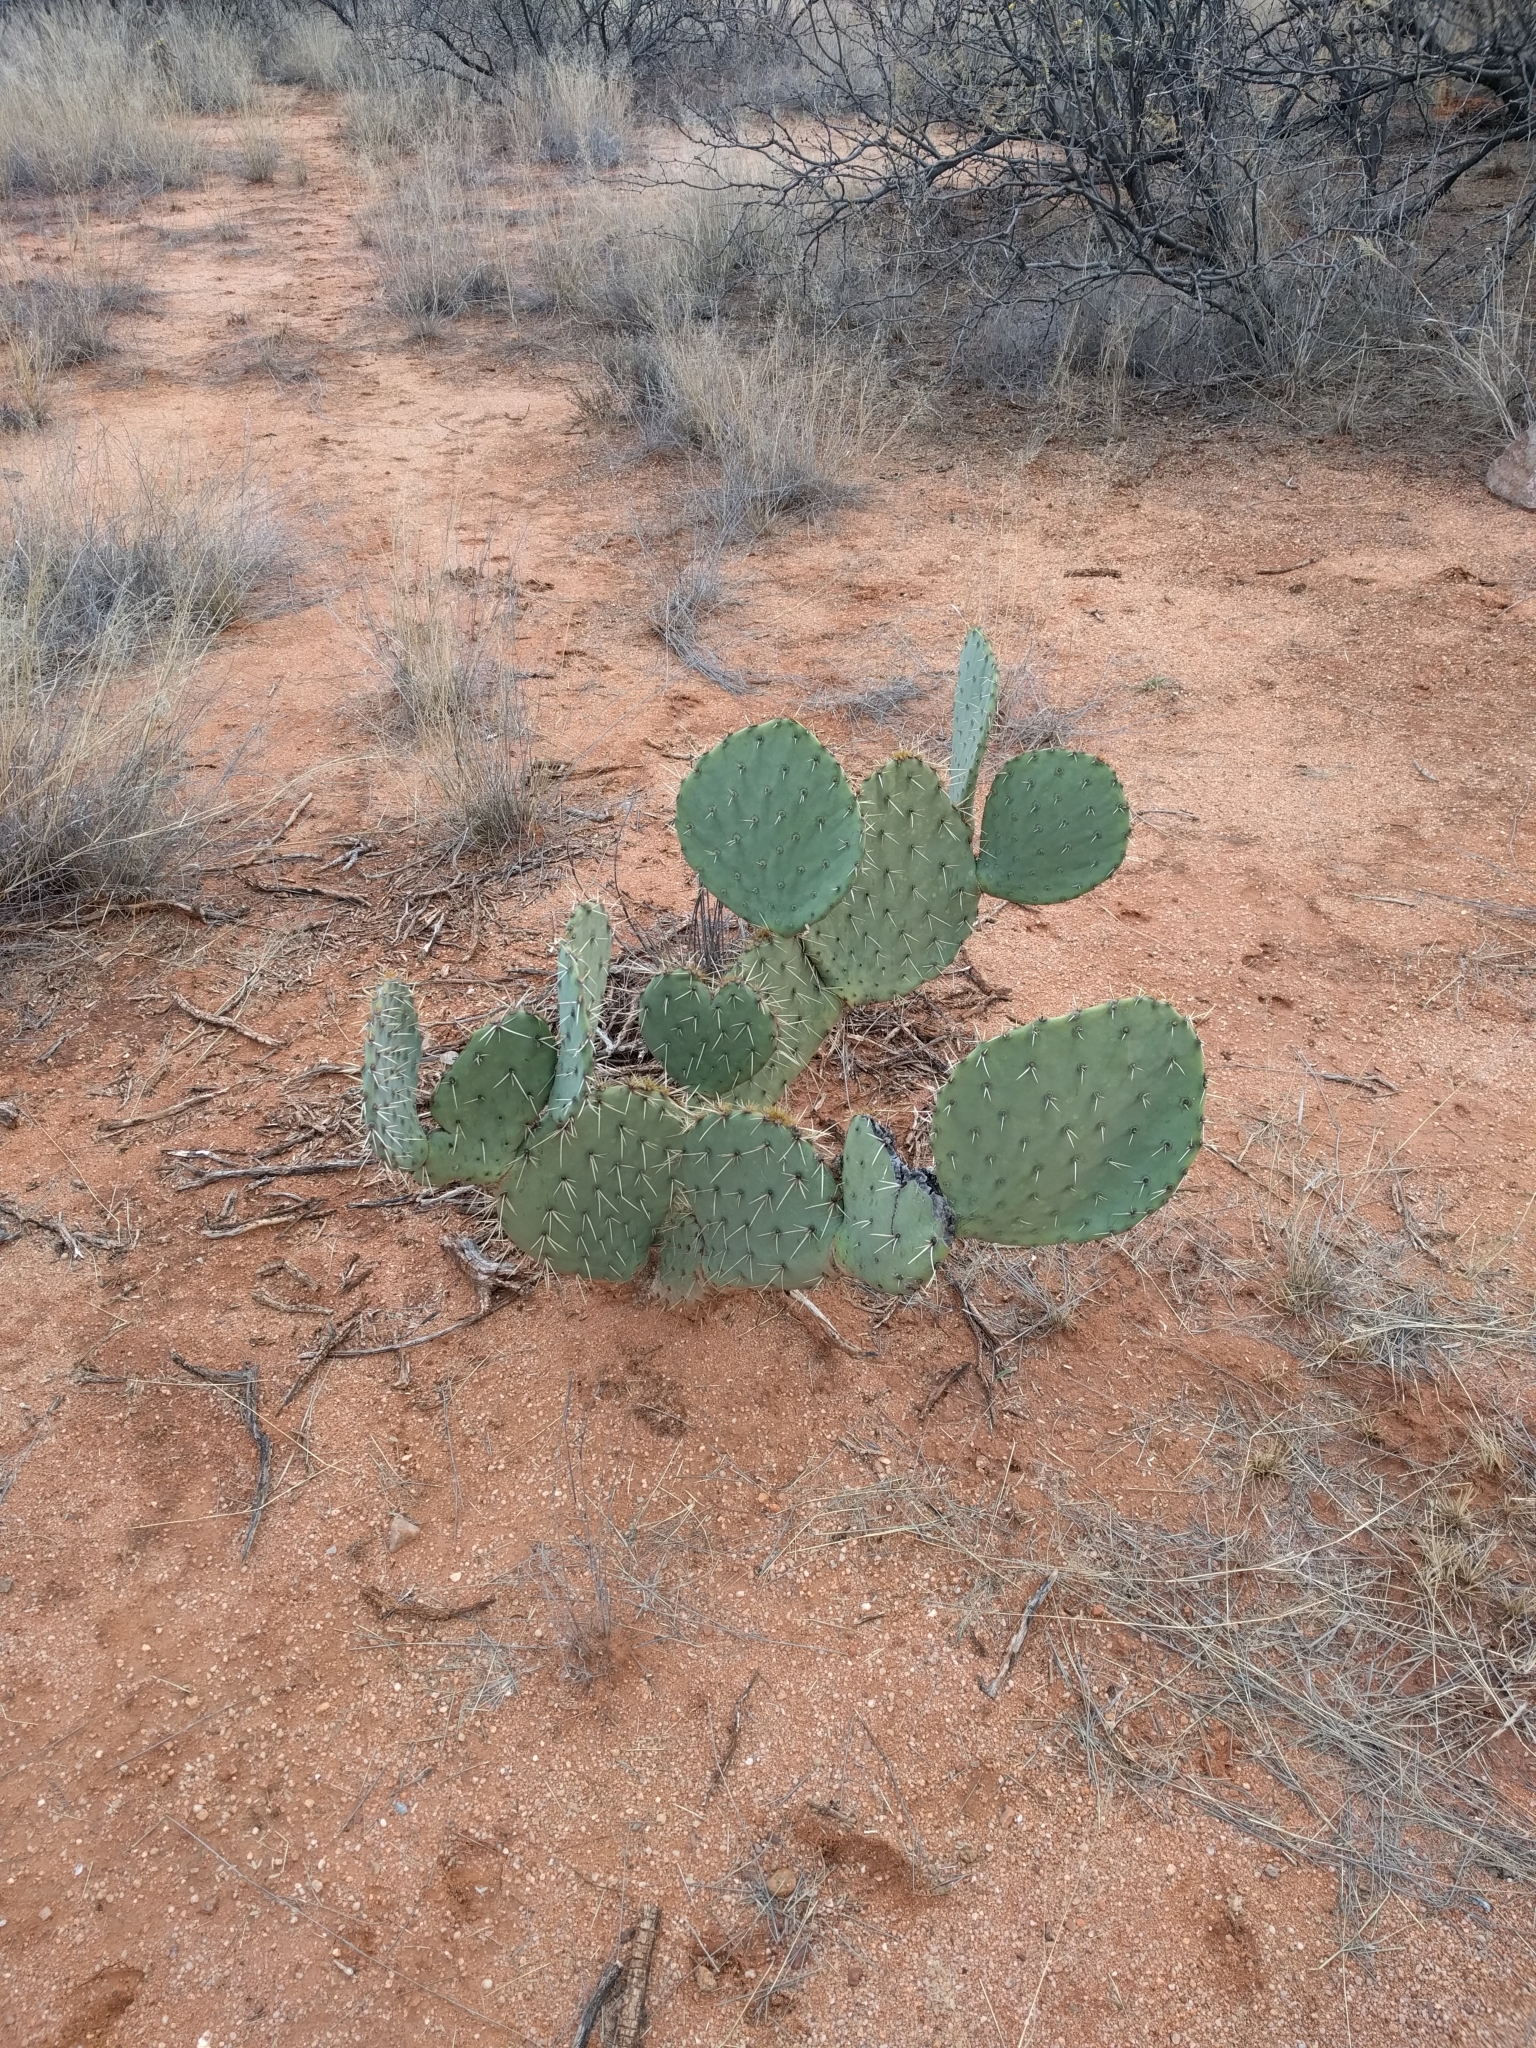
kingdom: Plantae
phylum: Tracheophyta
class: Magnoliopsida
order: Caryophyllales
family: Cactaceae
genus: Opuntia
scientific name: Opuntia engelmannii
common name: Cactus-apple
